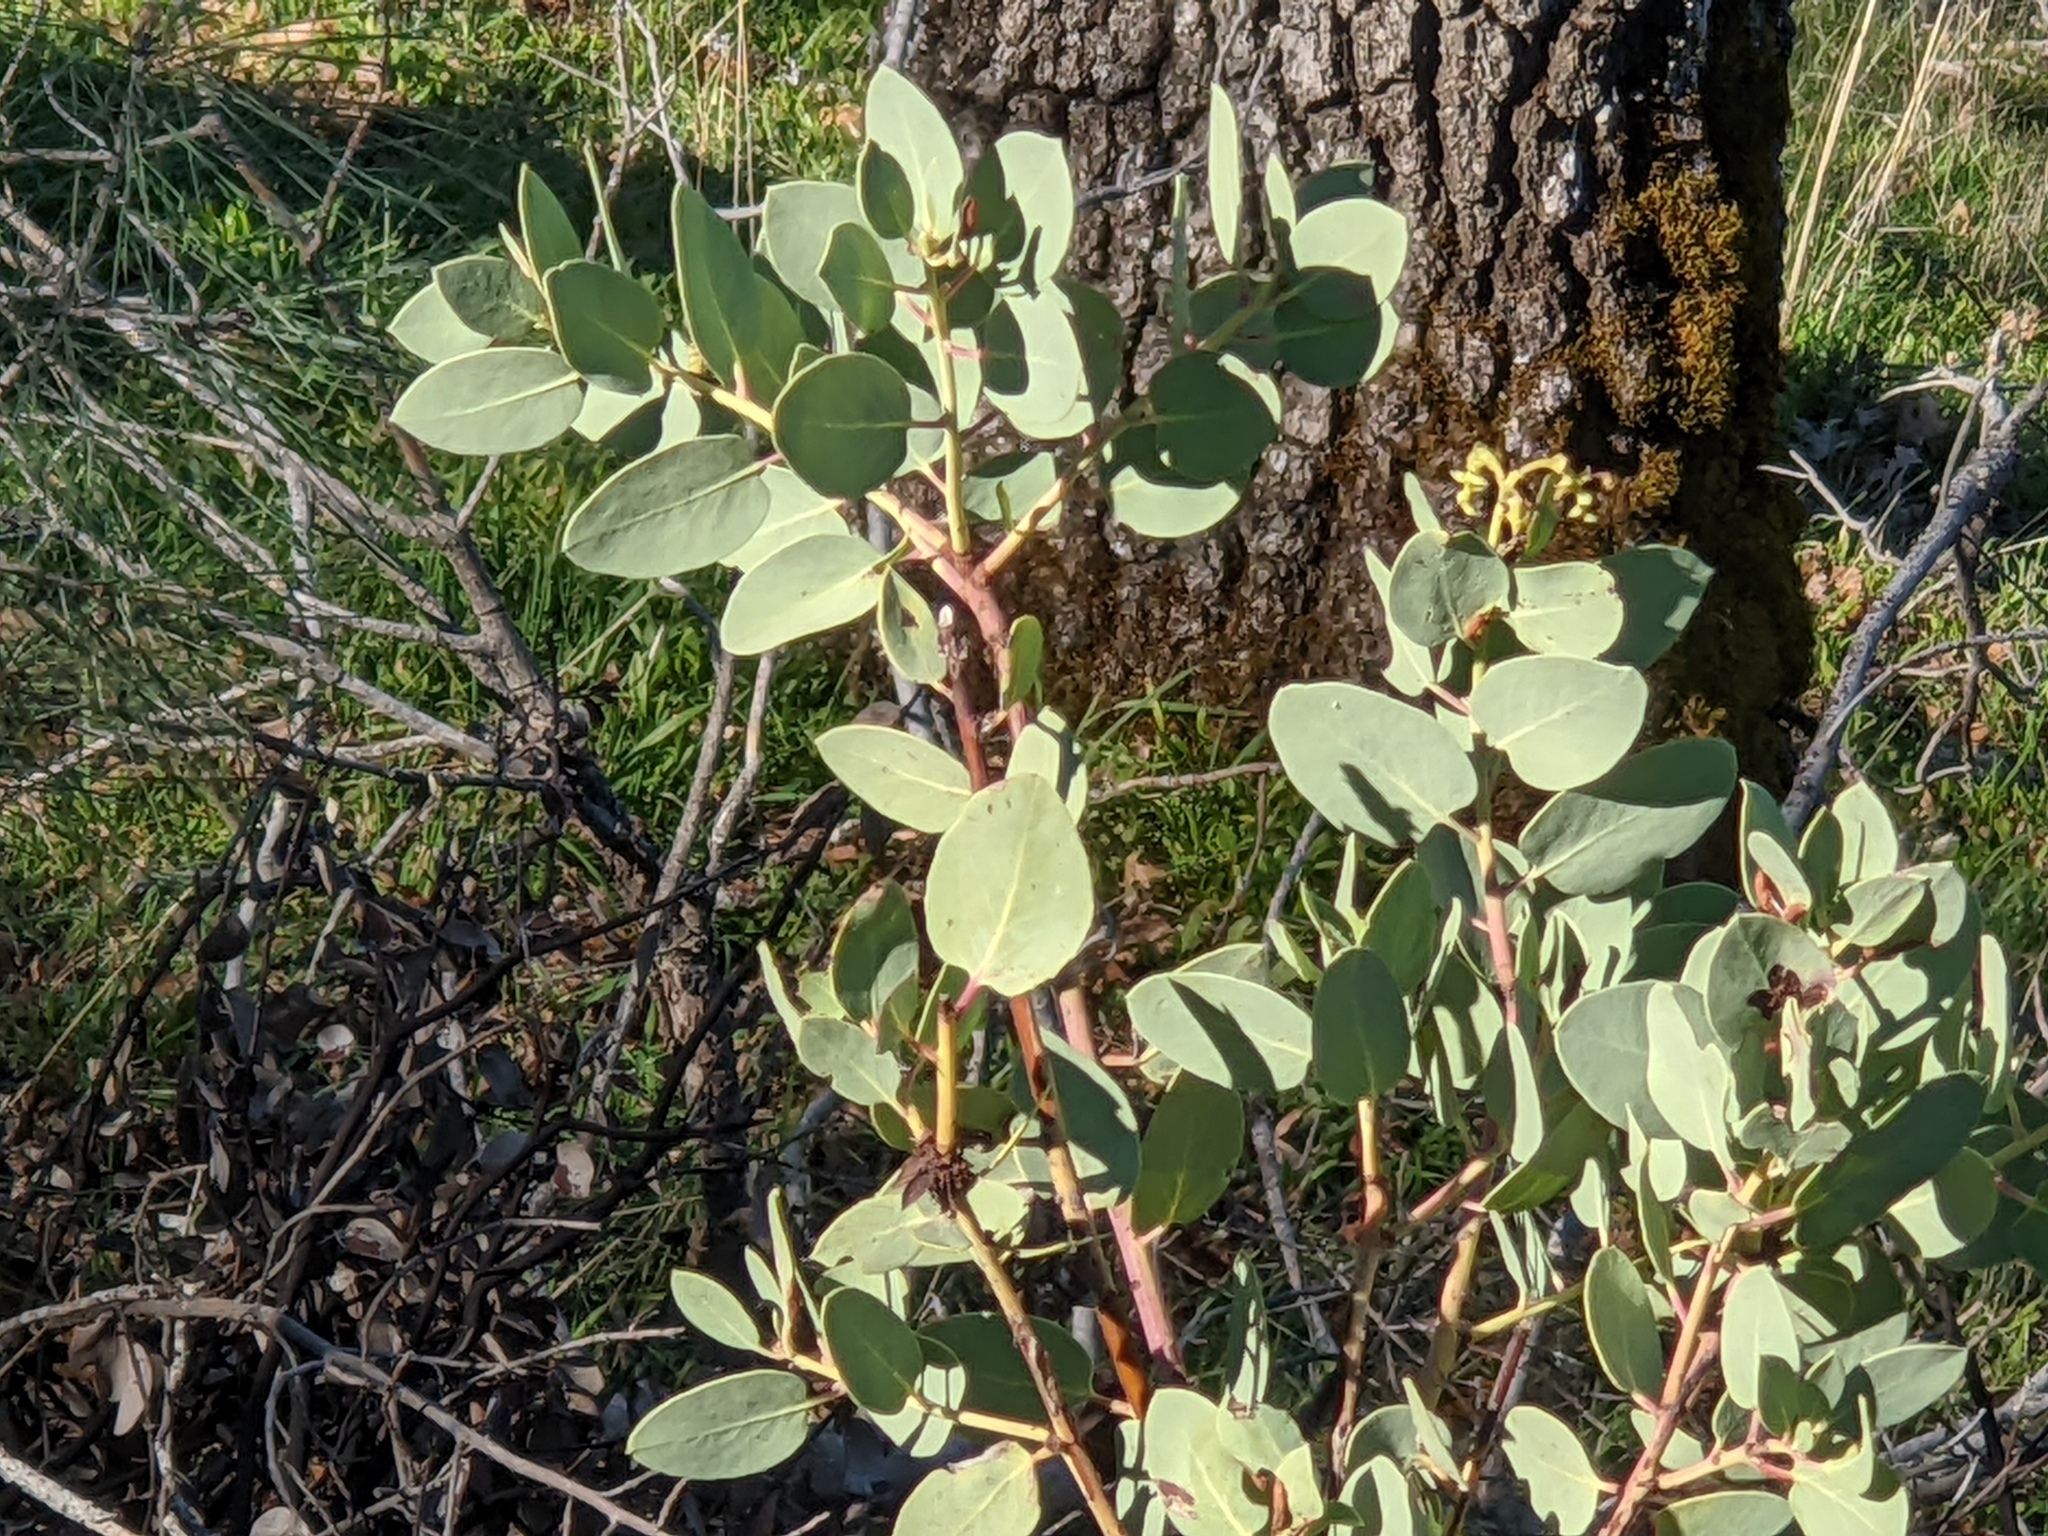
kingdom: Plantae
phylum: Tracheophyta
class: Magnoliopsida
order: Ericales
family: Ericaceae
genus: Arctostaphylos
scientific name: Arctostaphylos glauca
